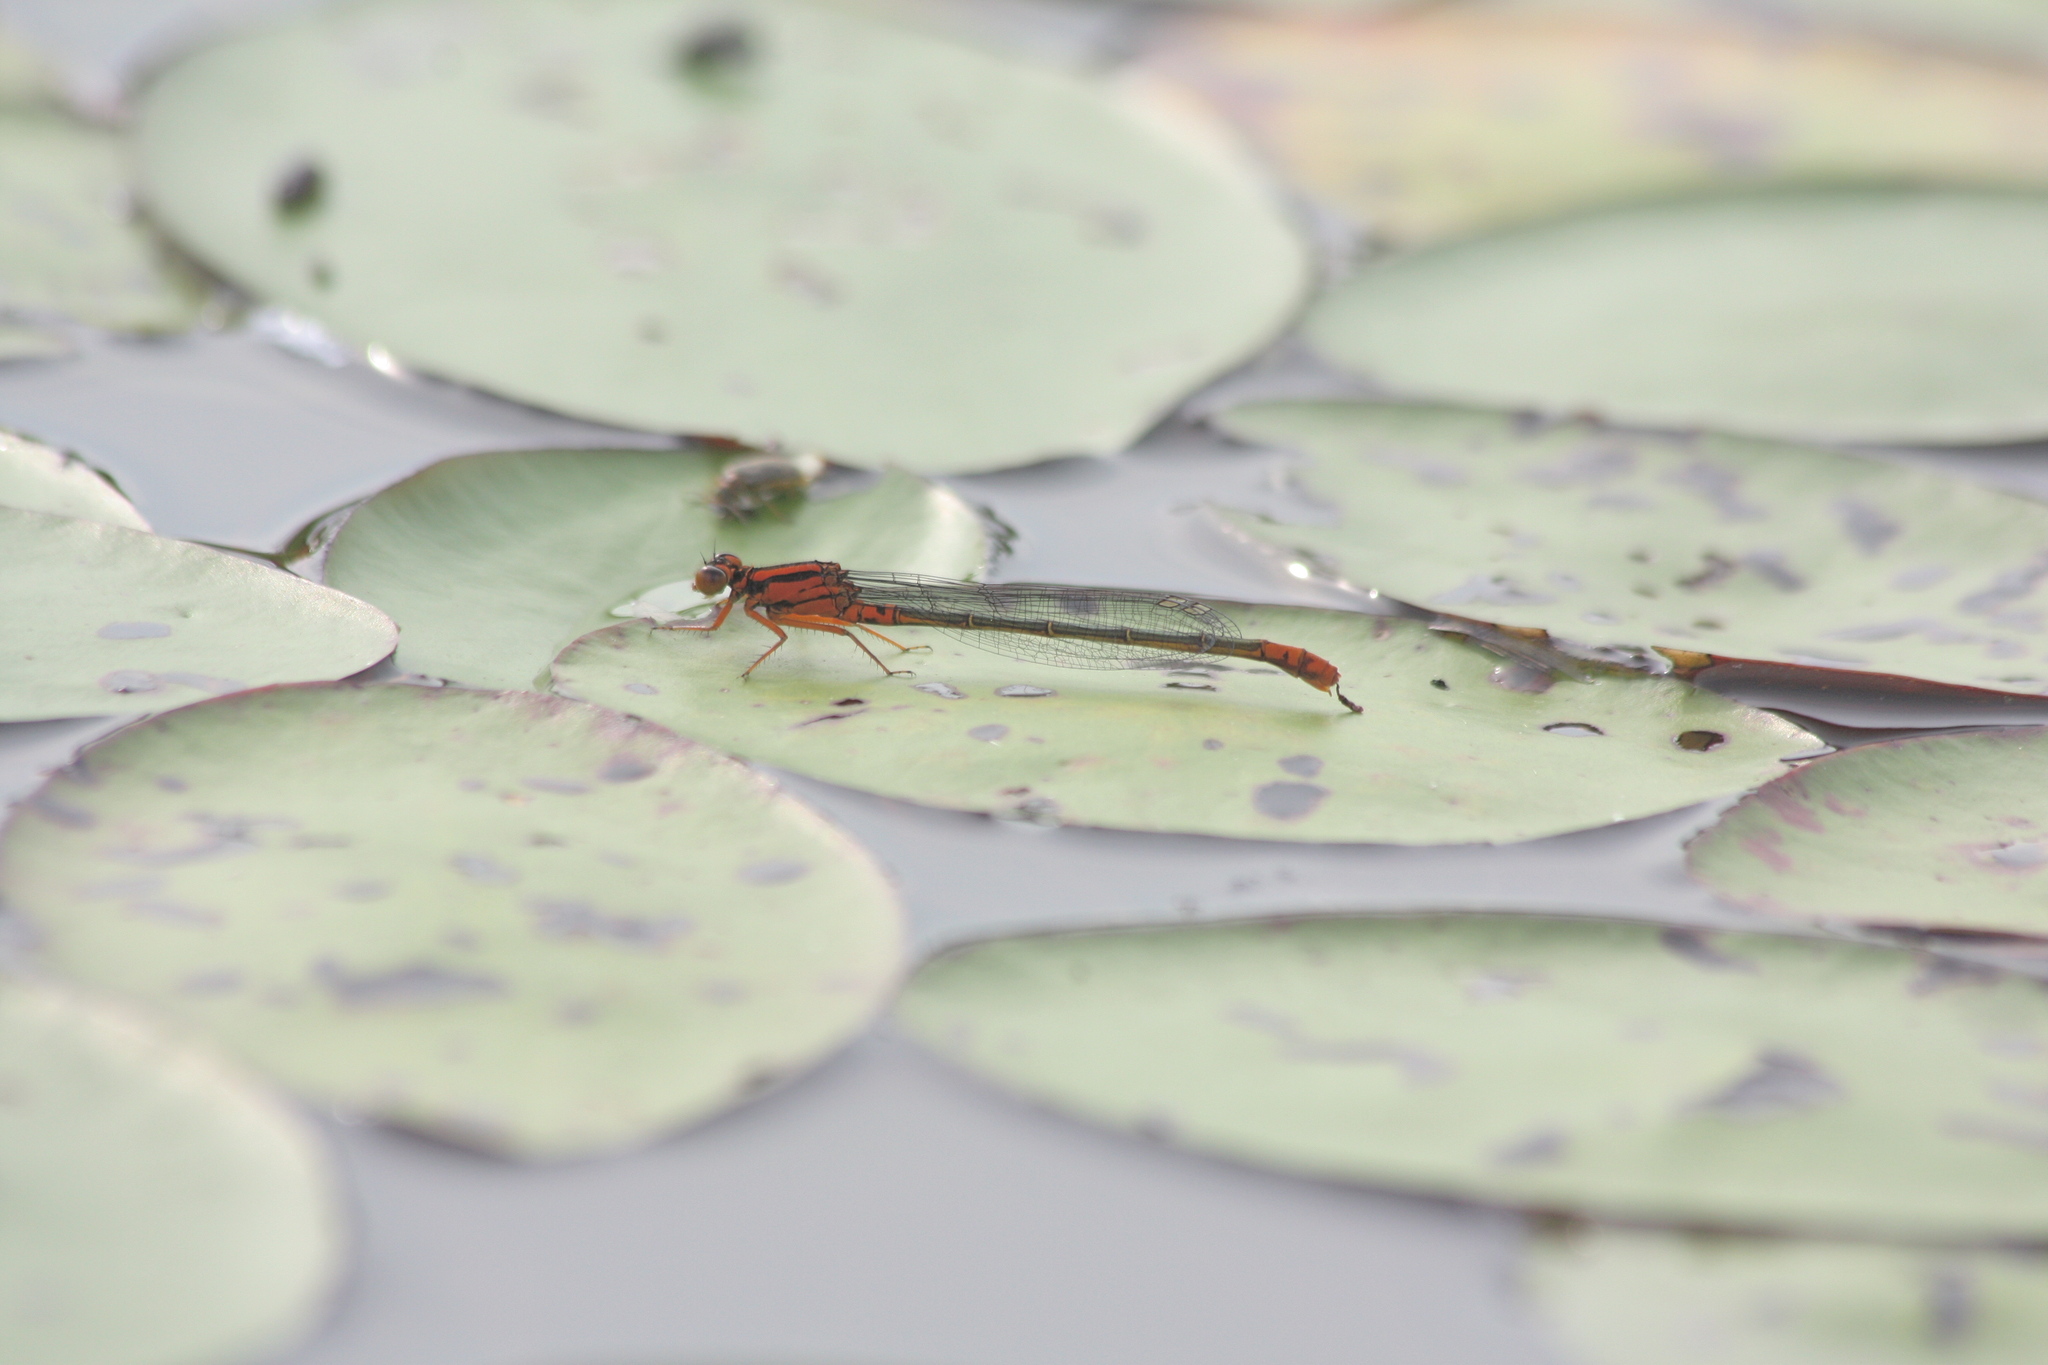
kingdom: Animalia
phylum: Arthropoda
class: Insecta
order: Odonata
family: Coenagrionidae
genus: Ischnura
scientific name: Ischnura kellicotti
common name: Lilypad forktail
